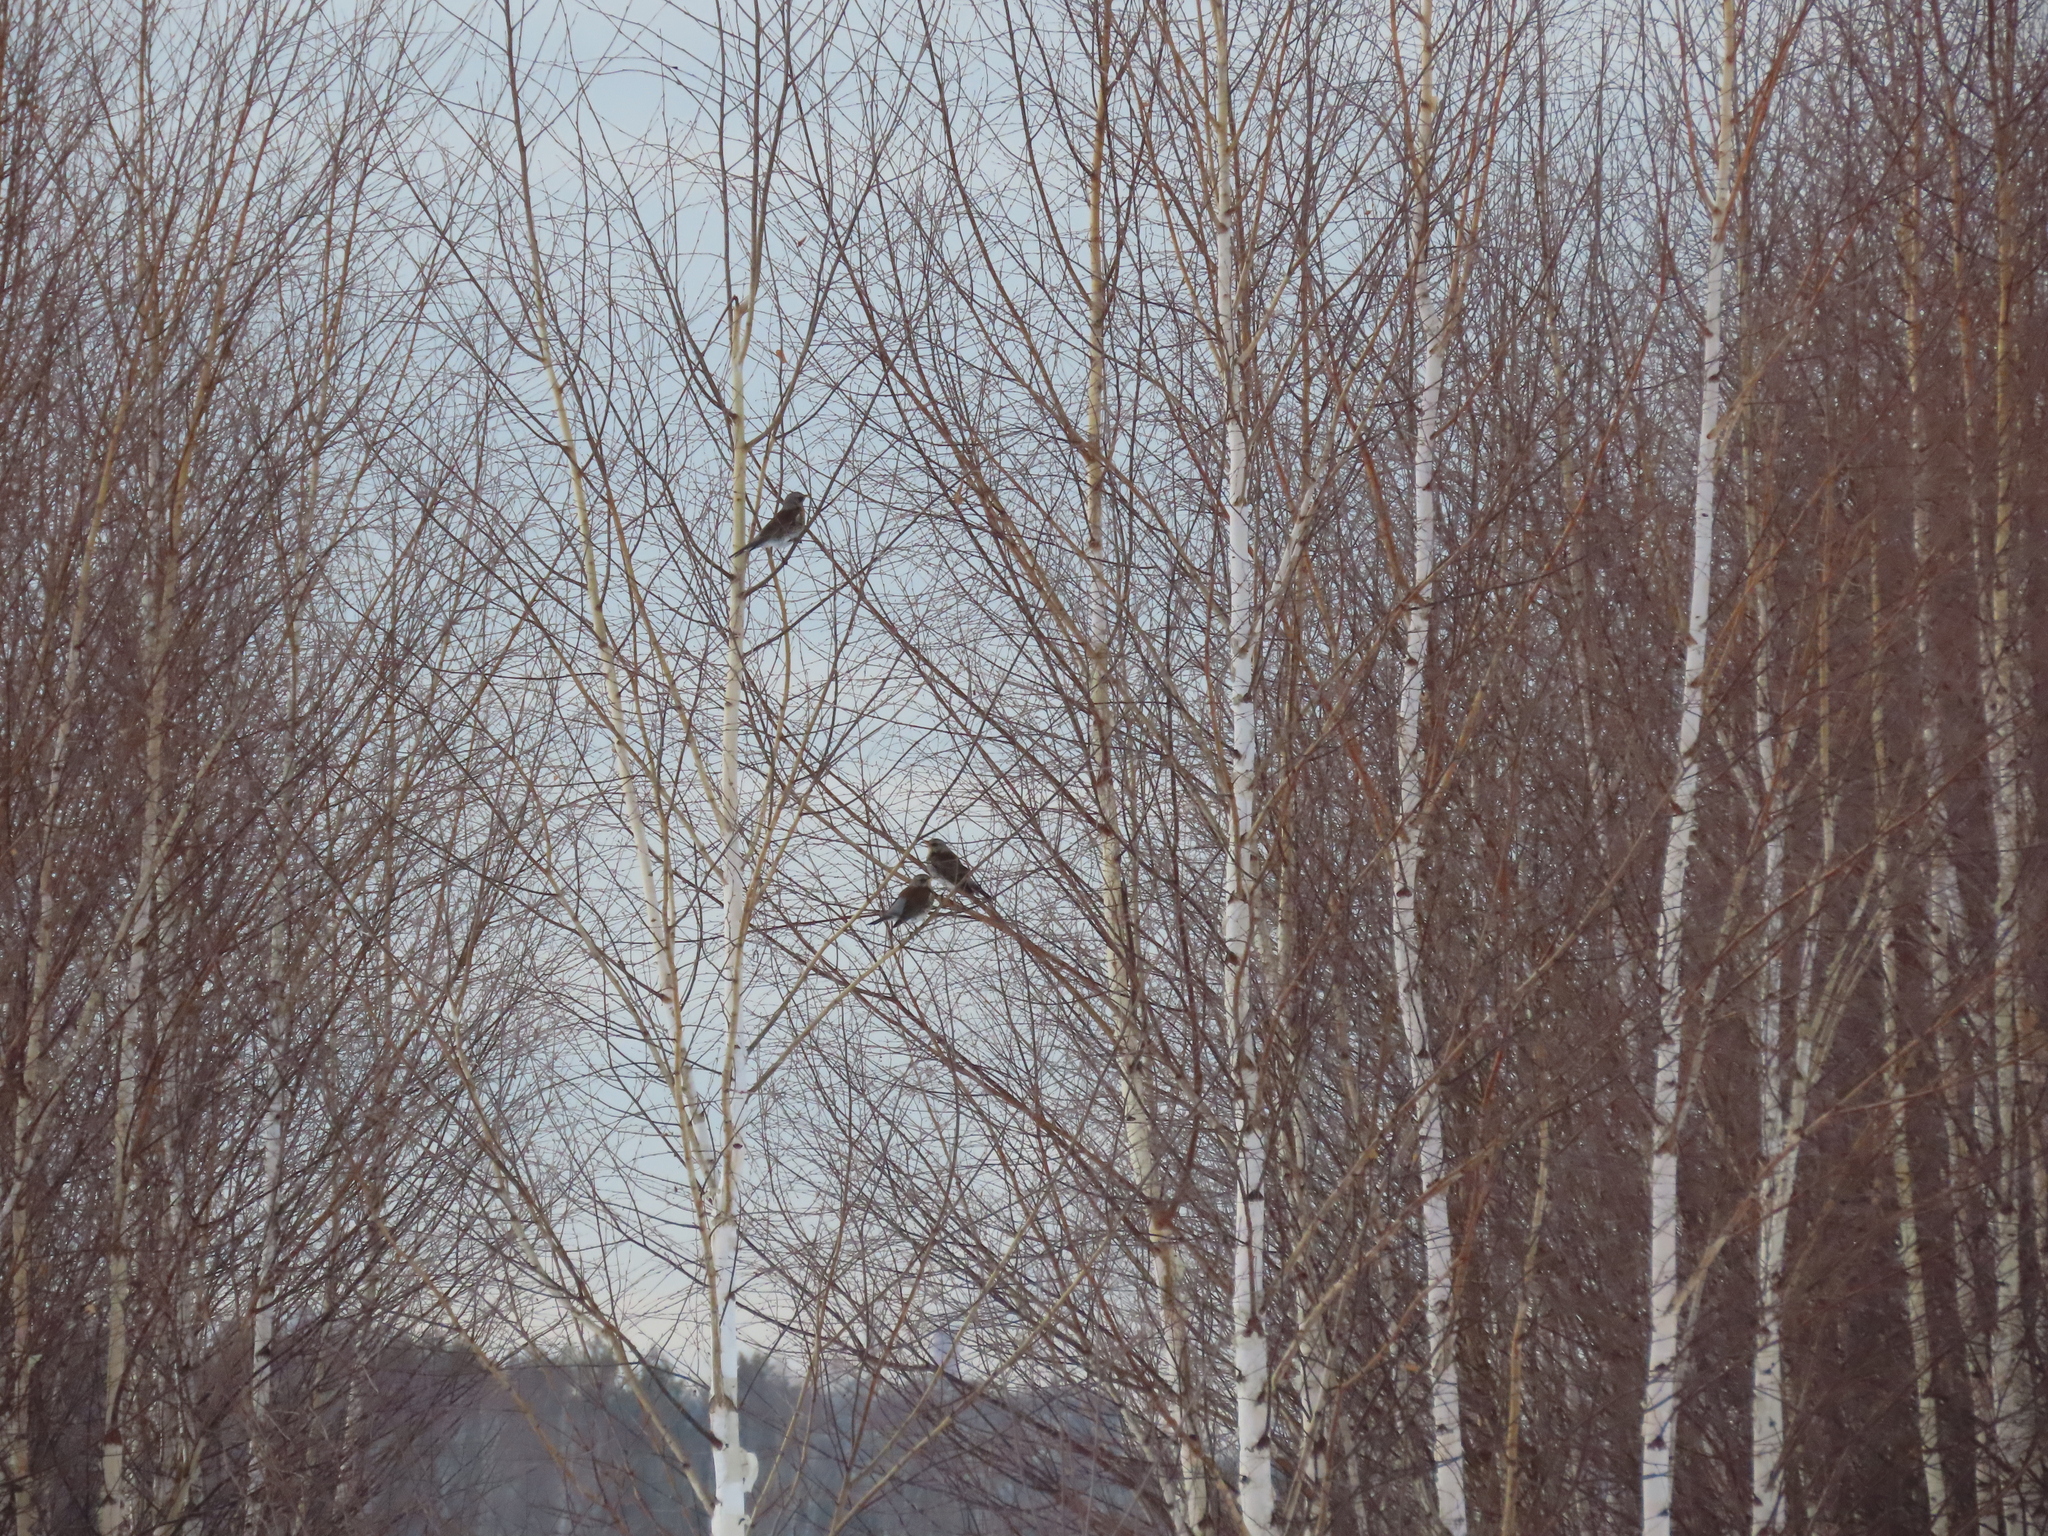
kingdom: Animalia
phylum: Chordata
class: Aves
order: Passeriformes
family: Turdidae
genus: Turdus
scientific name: Turdus pilaris
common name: Fieldfare
